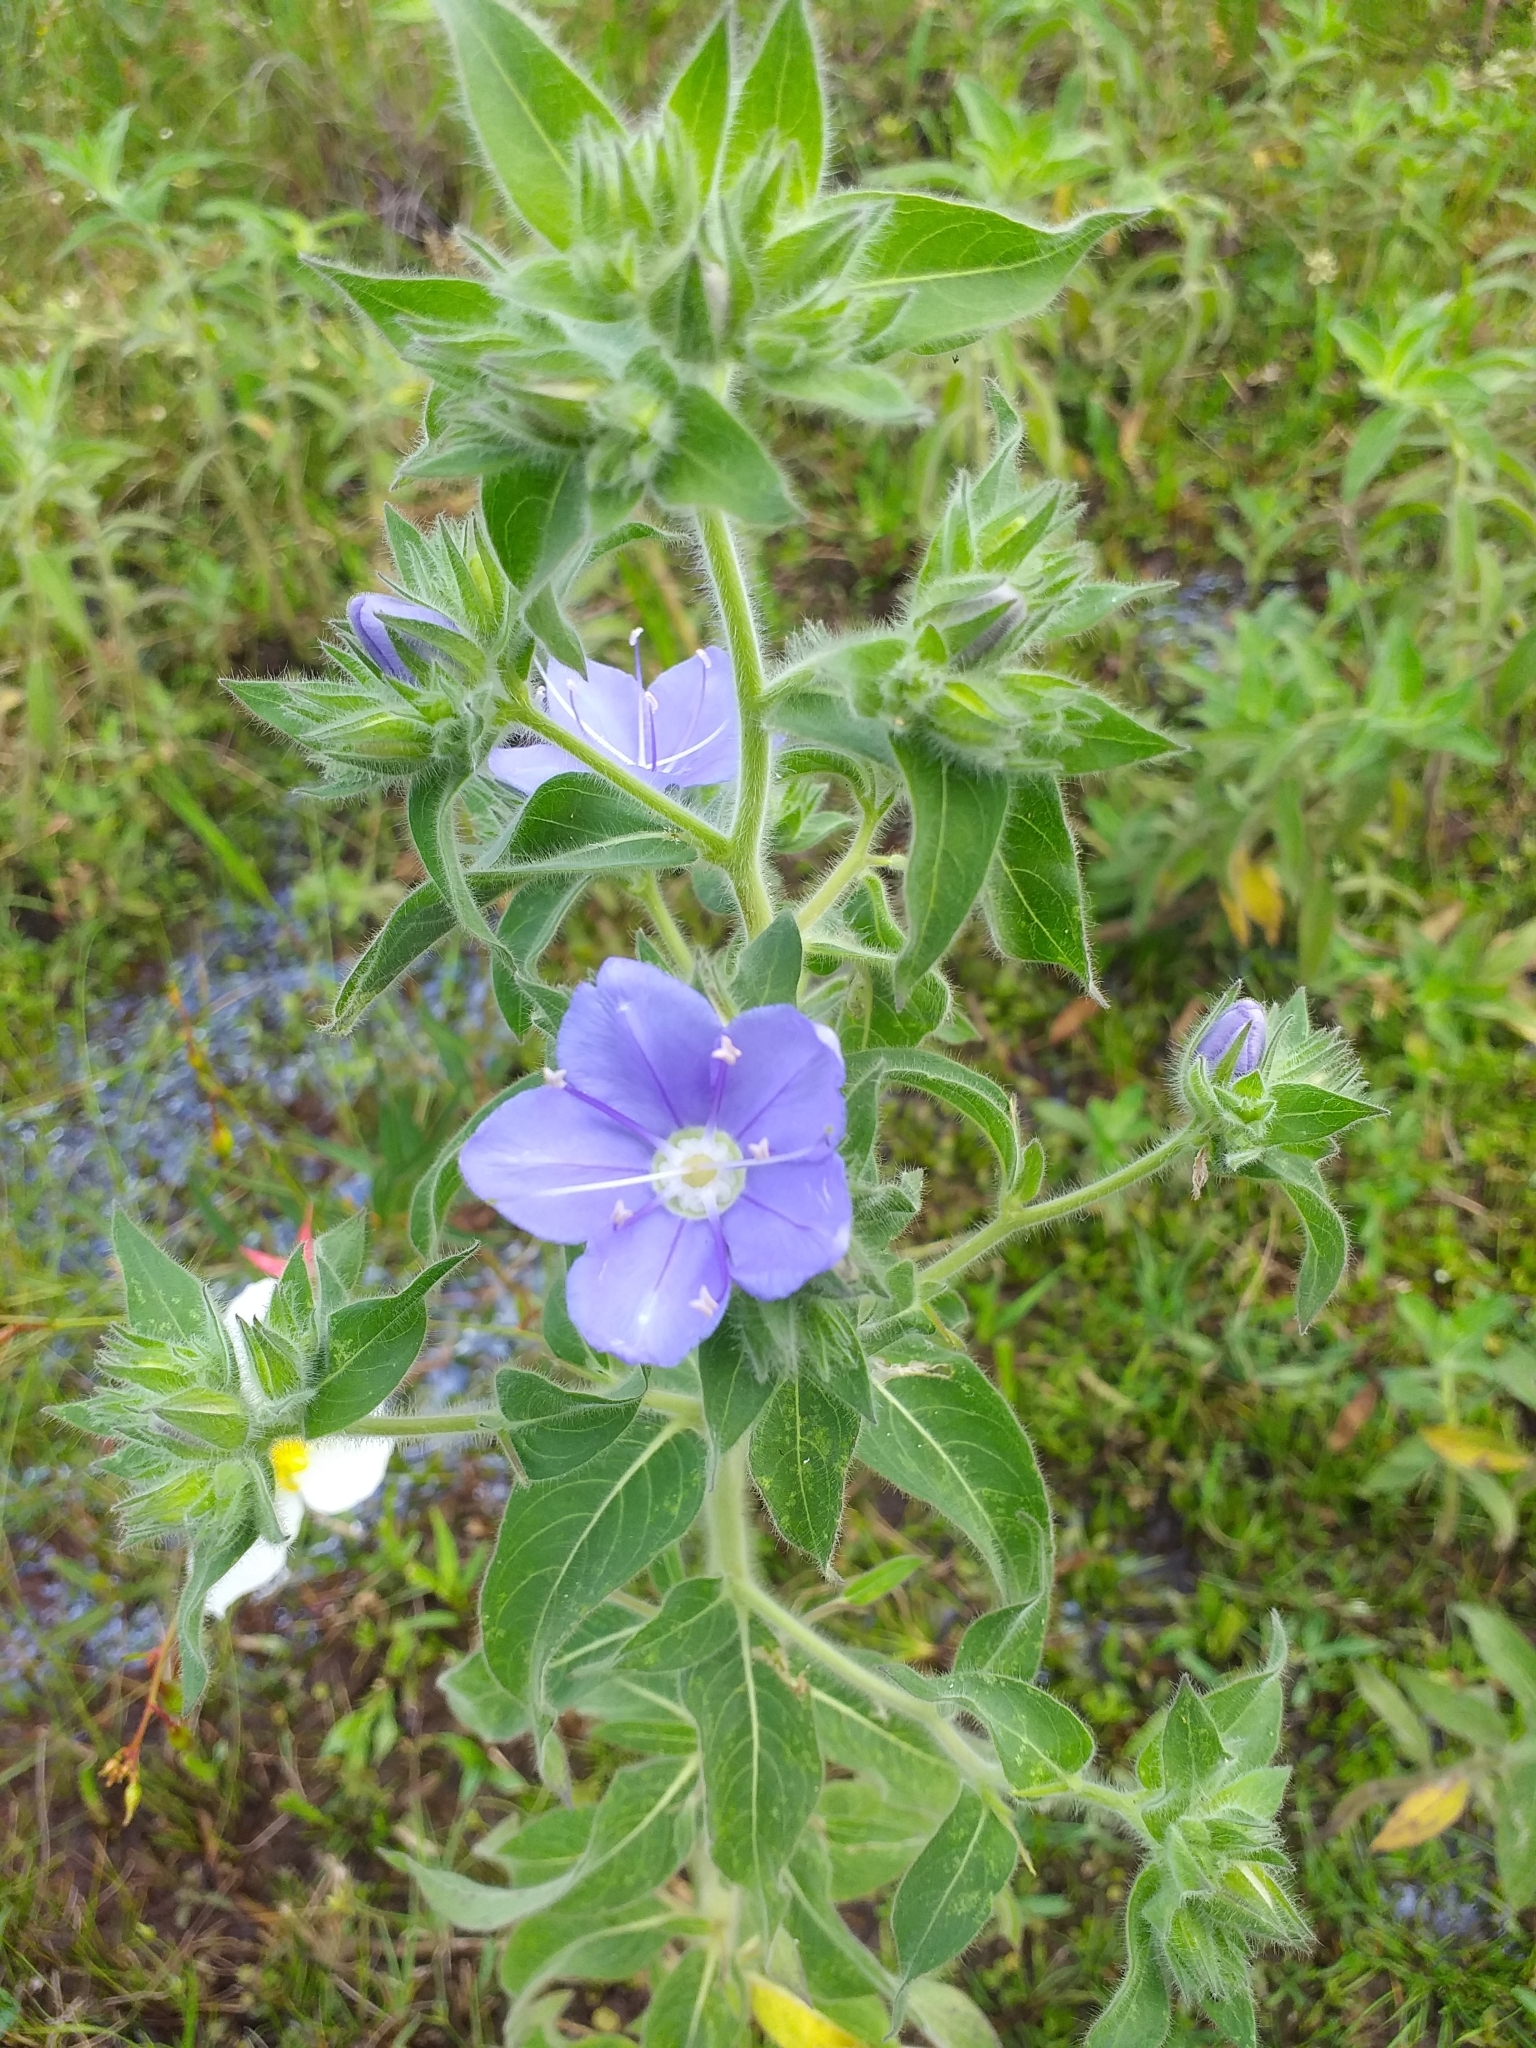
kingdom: Plantae
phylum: Tracheophyta
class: Magnoliopsida
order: Solanales
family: Hydroleaceae
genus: Hydrolea
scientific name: Hydrolea elatior
